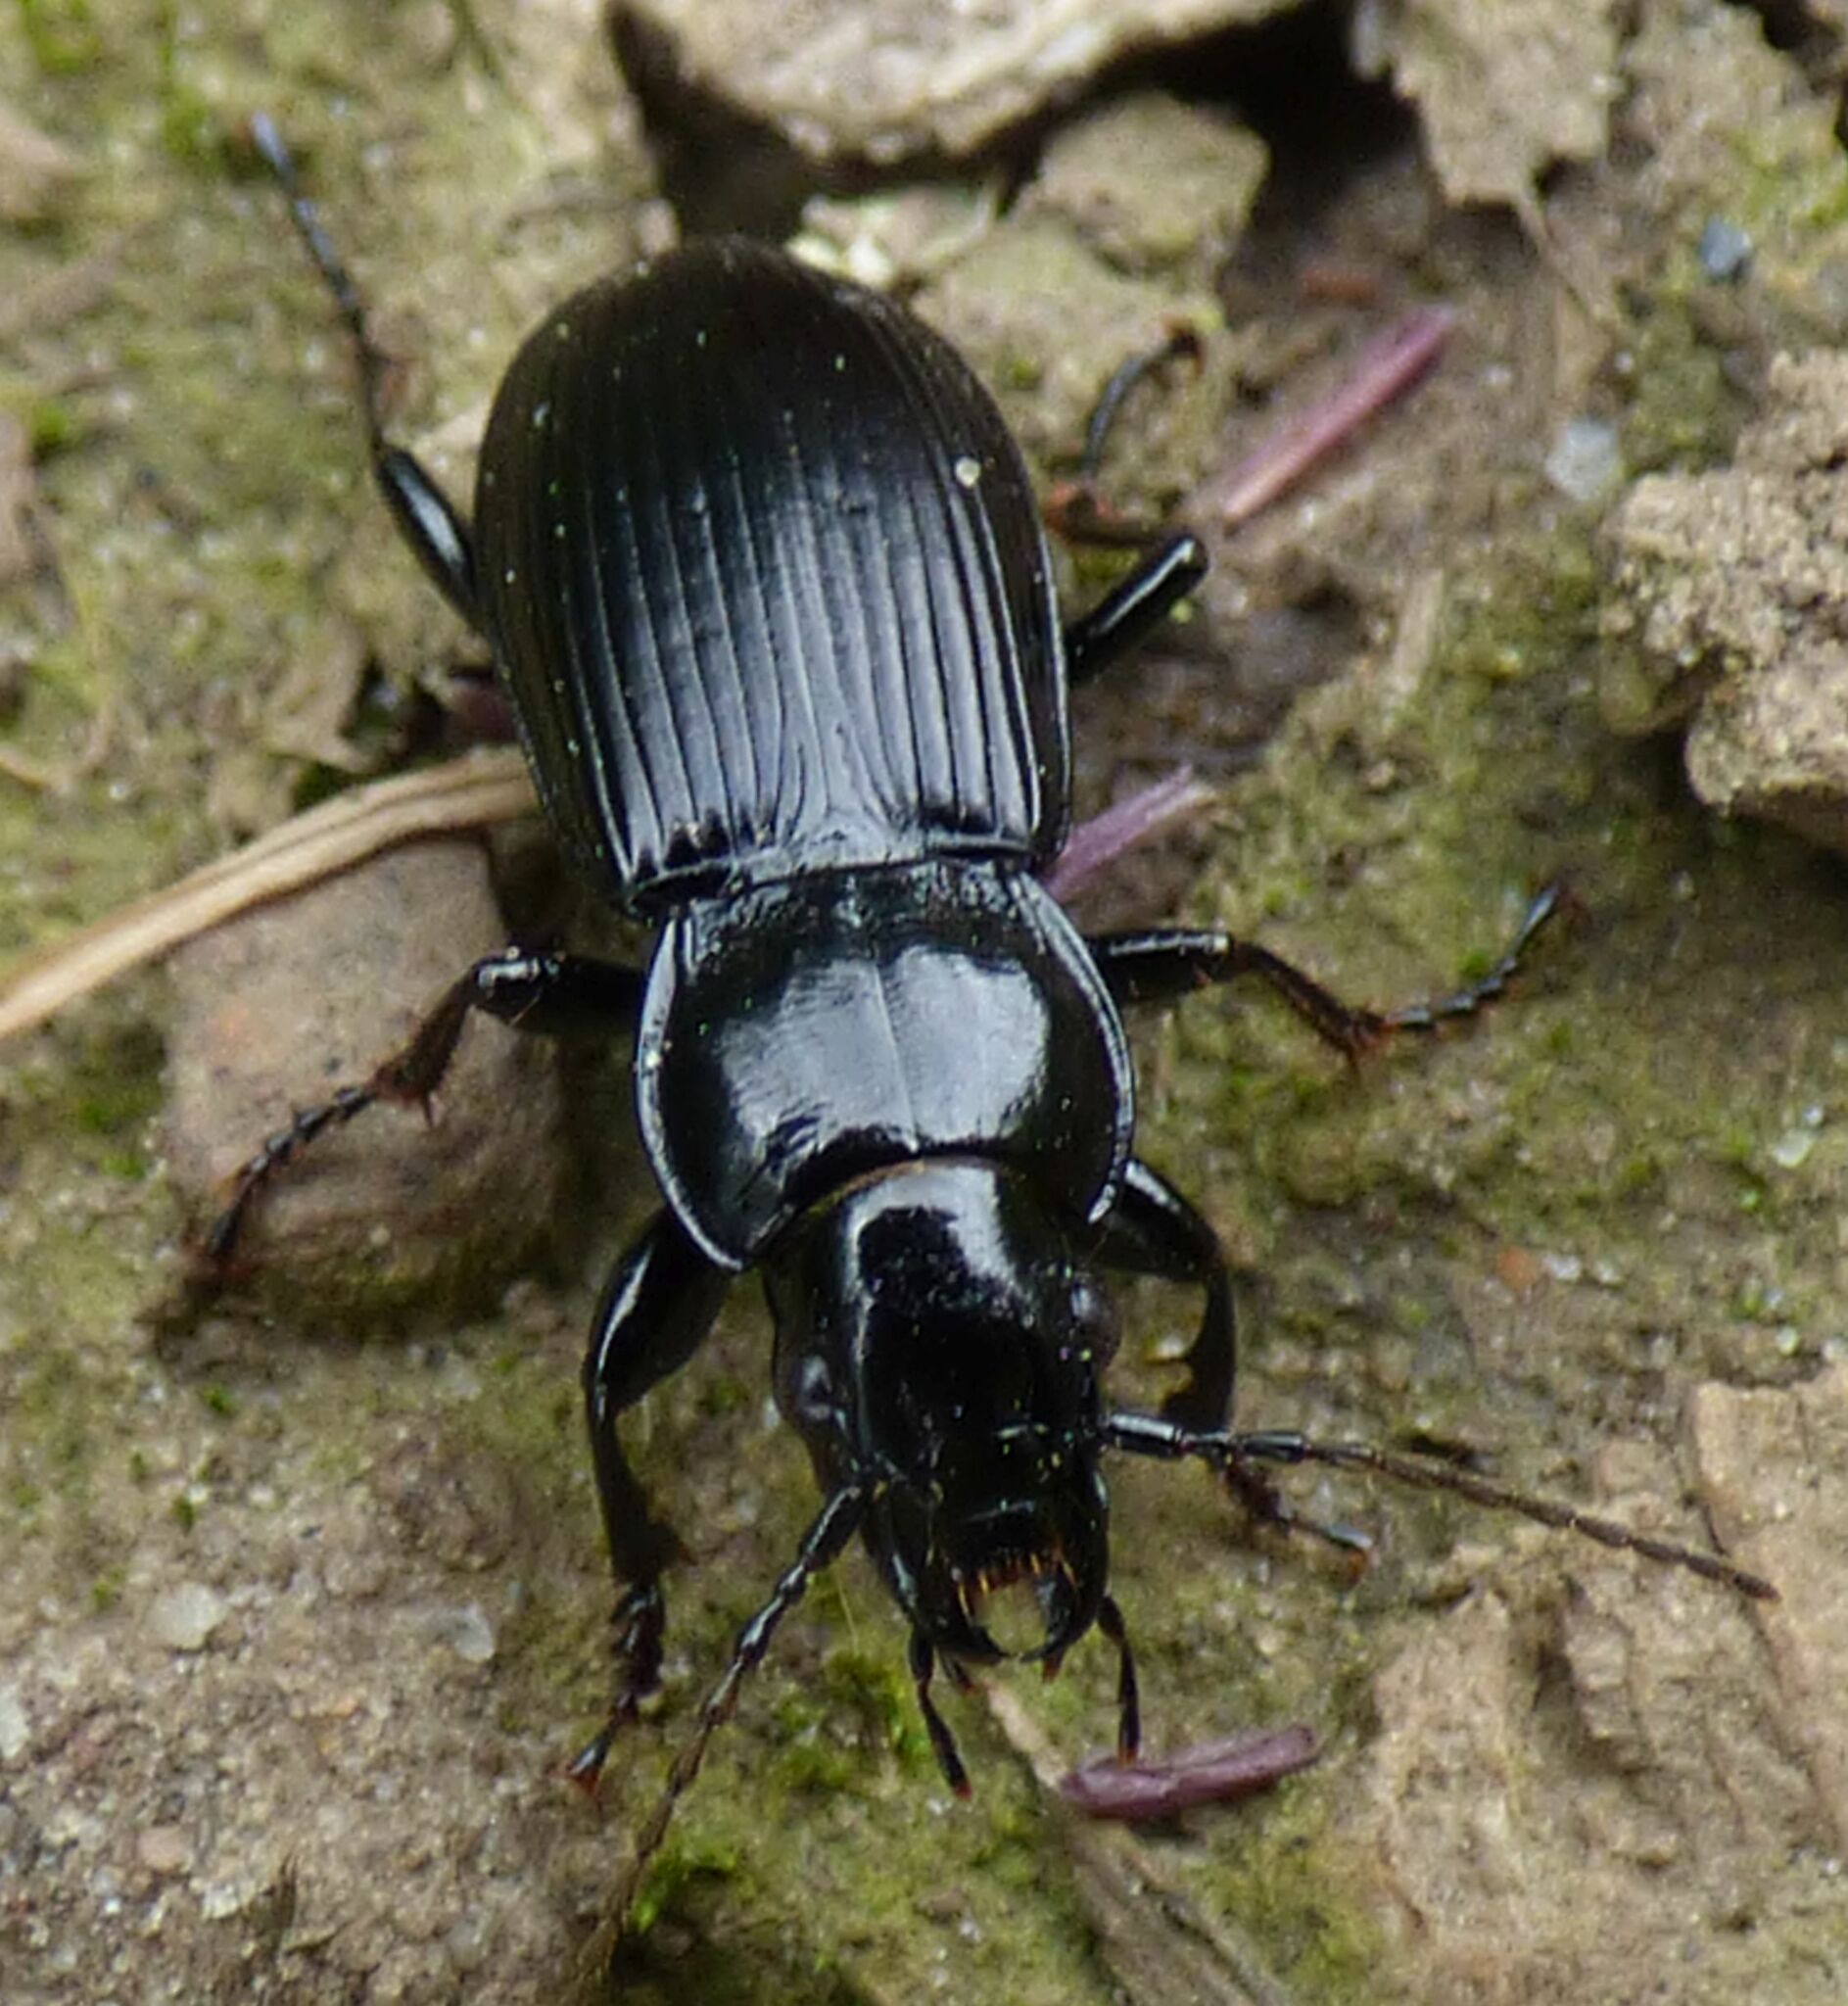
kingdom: Animalia
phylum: Arthropoda
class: Insecta
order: Coleoptera
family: Carabidae
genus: Pterostichus
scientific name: Pterostichus melanarius
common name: European dark harp ground beetle
